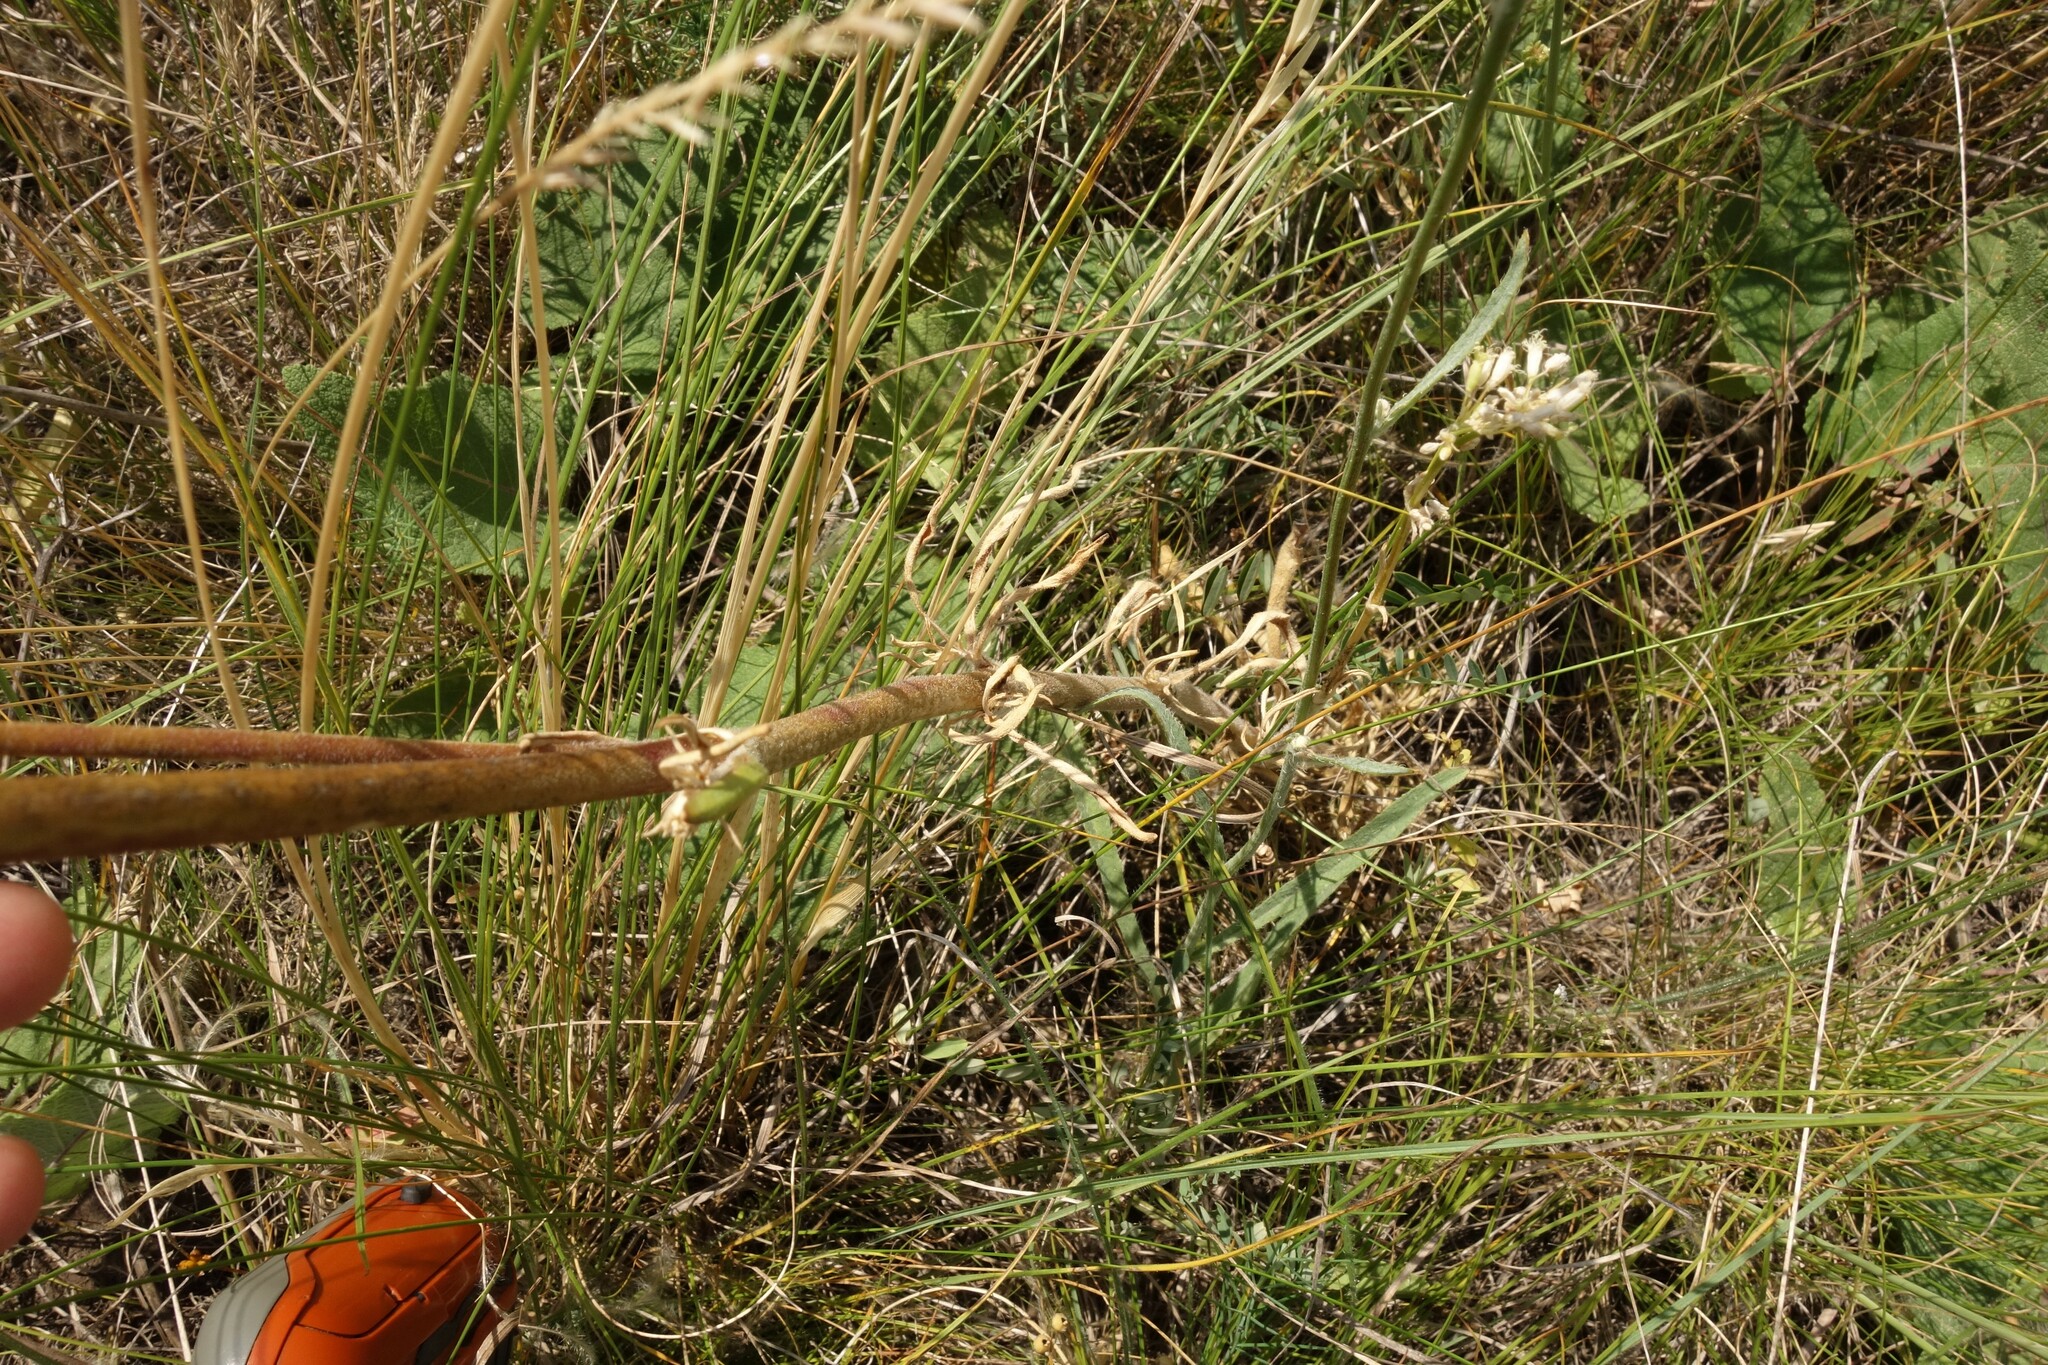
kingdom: Plantae
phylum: Tracheophyta
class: Magnoliopsida
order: Caryophyllales
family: Caryophyllaceae
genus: Silene
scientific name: Silene borysthenica
